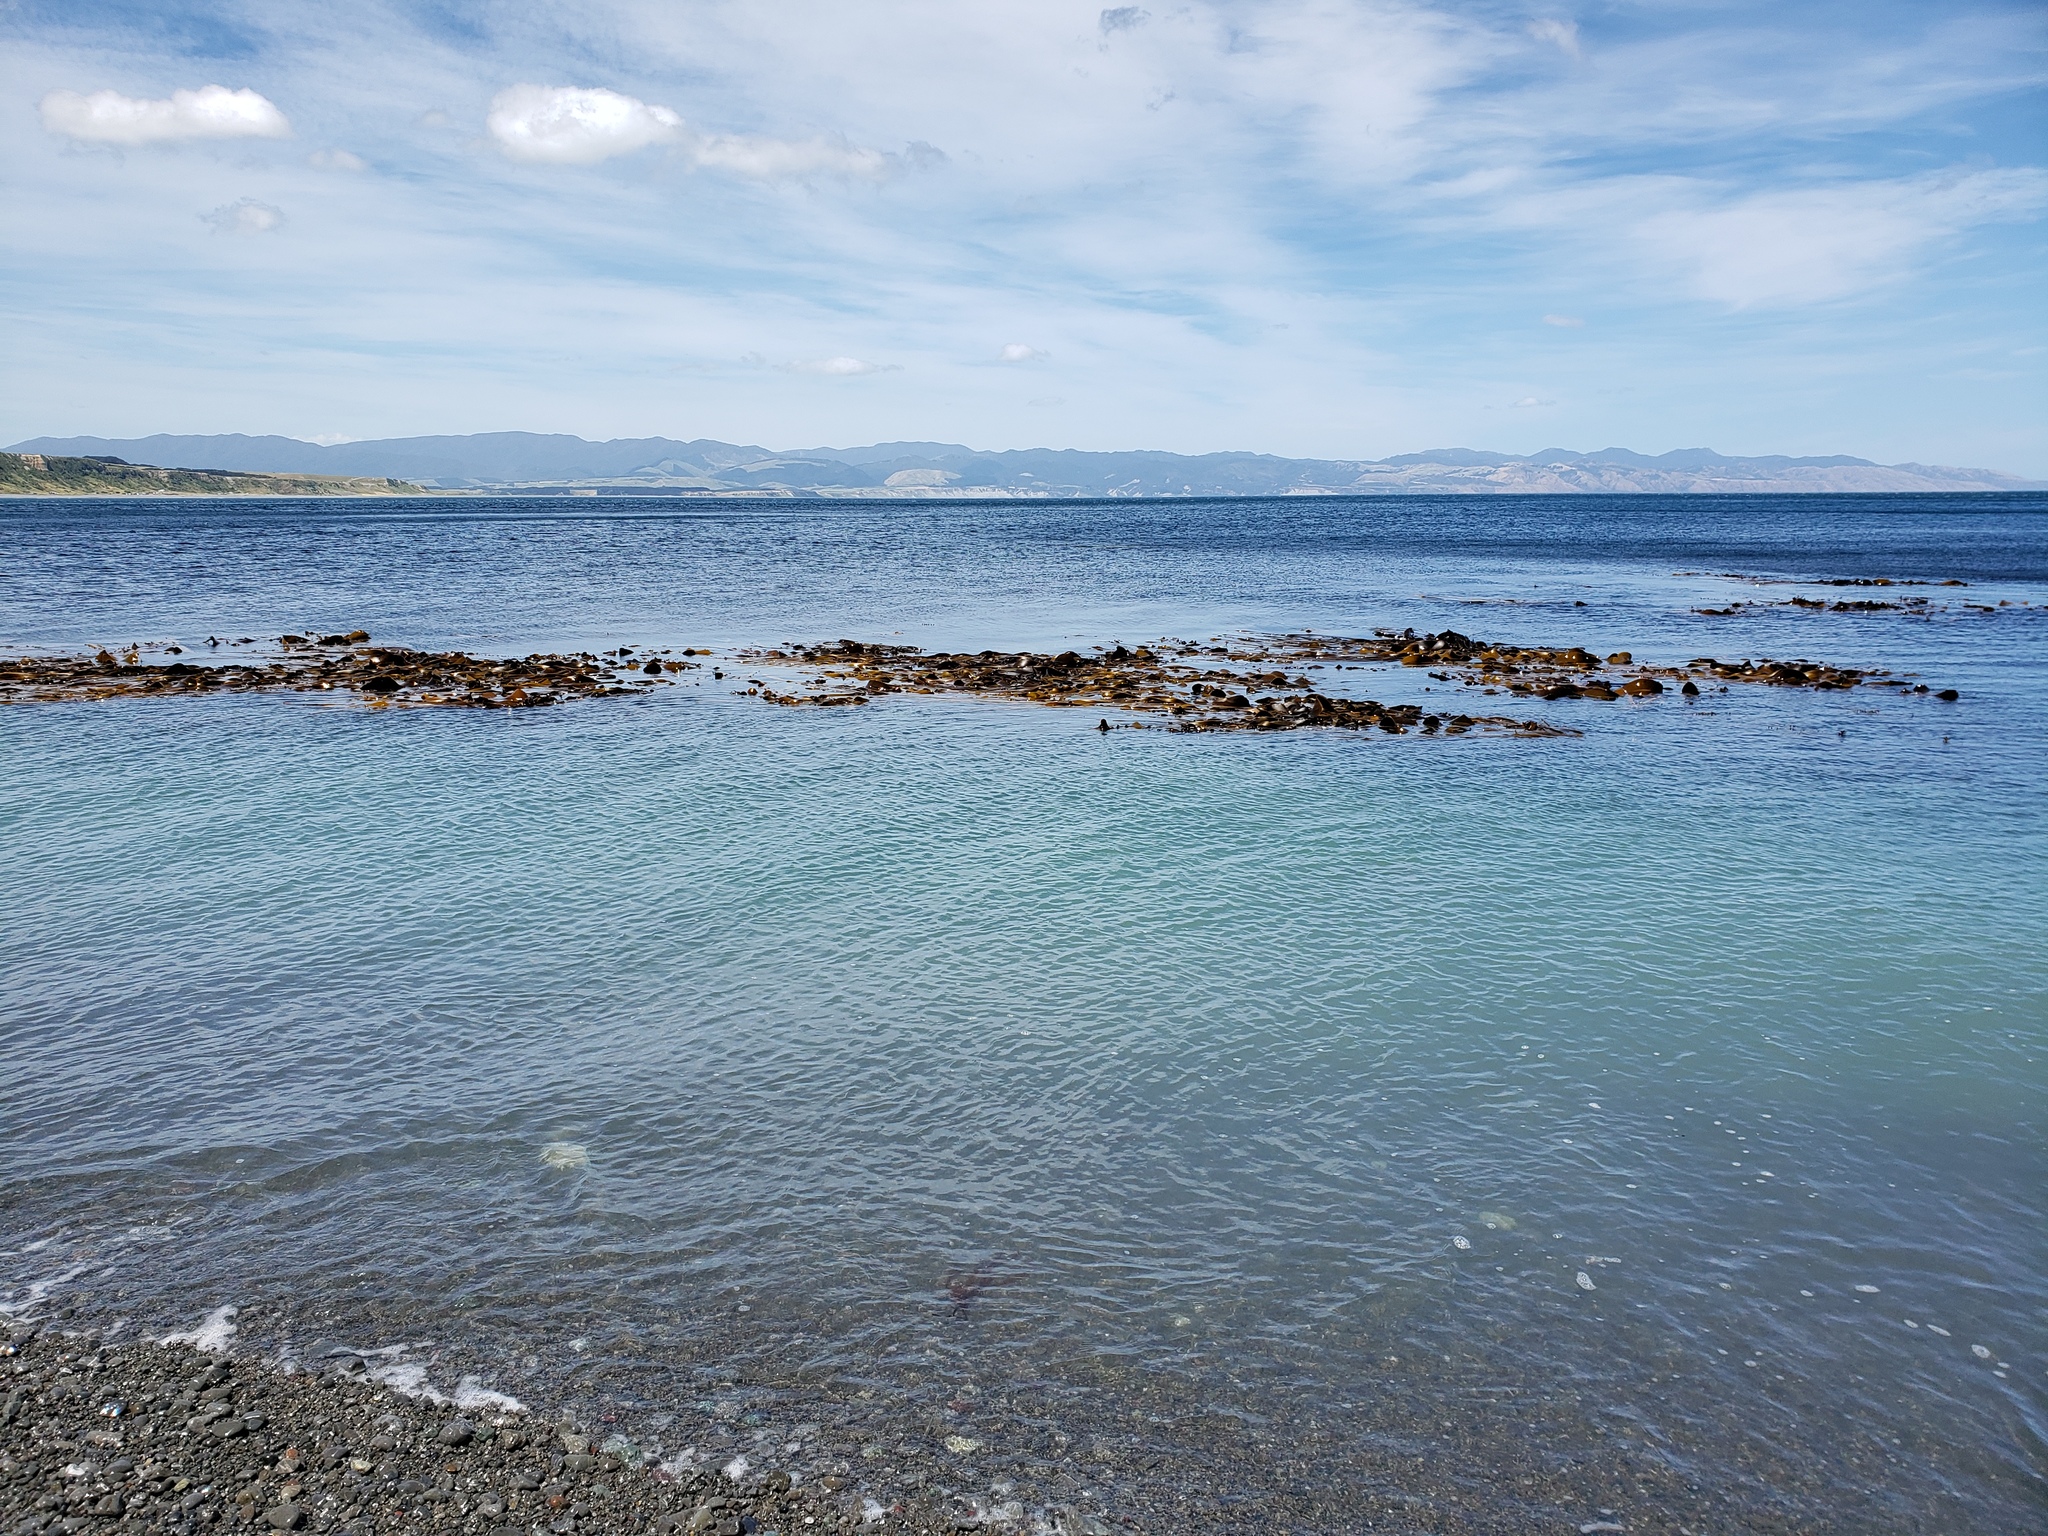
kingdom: Chromista
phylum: Ochrophyta
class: Phaeophyceae
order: Fucales
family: Durvillaeaceae
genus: Durvillaea
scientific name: Durvillaea antarctica
